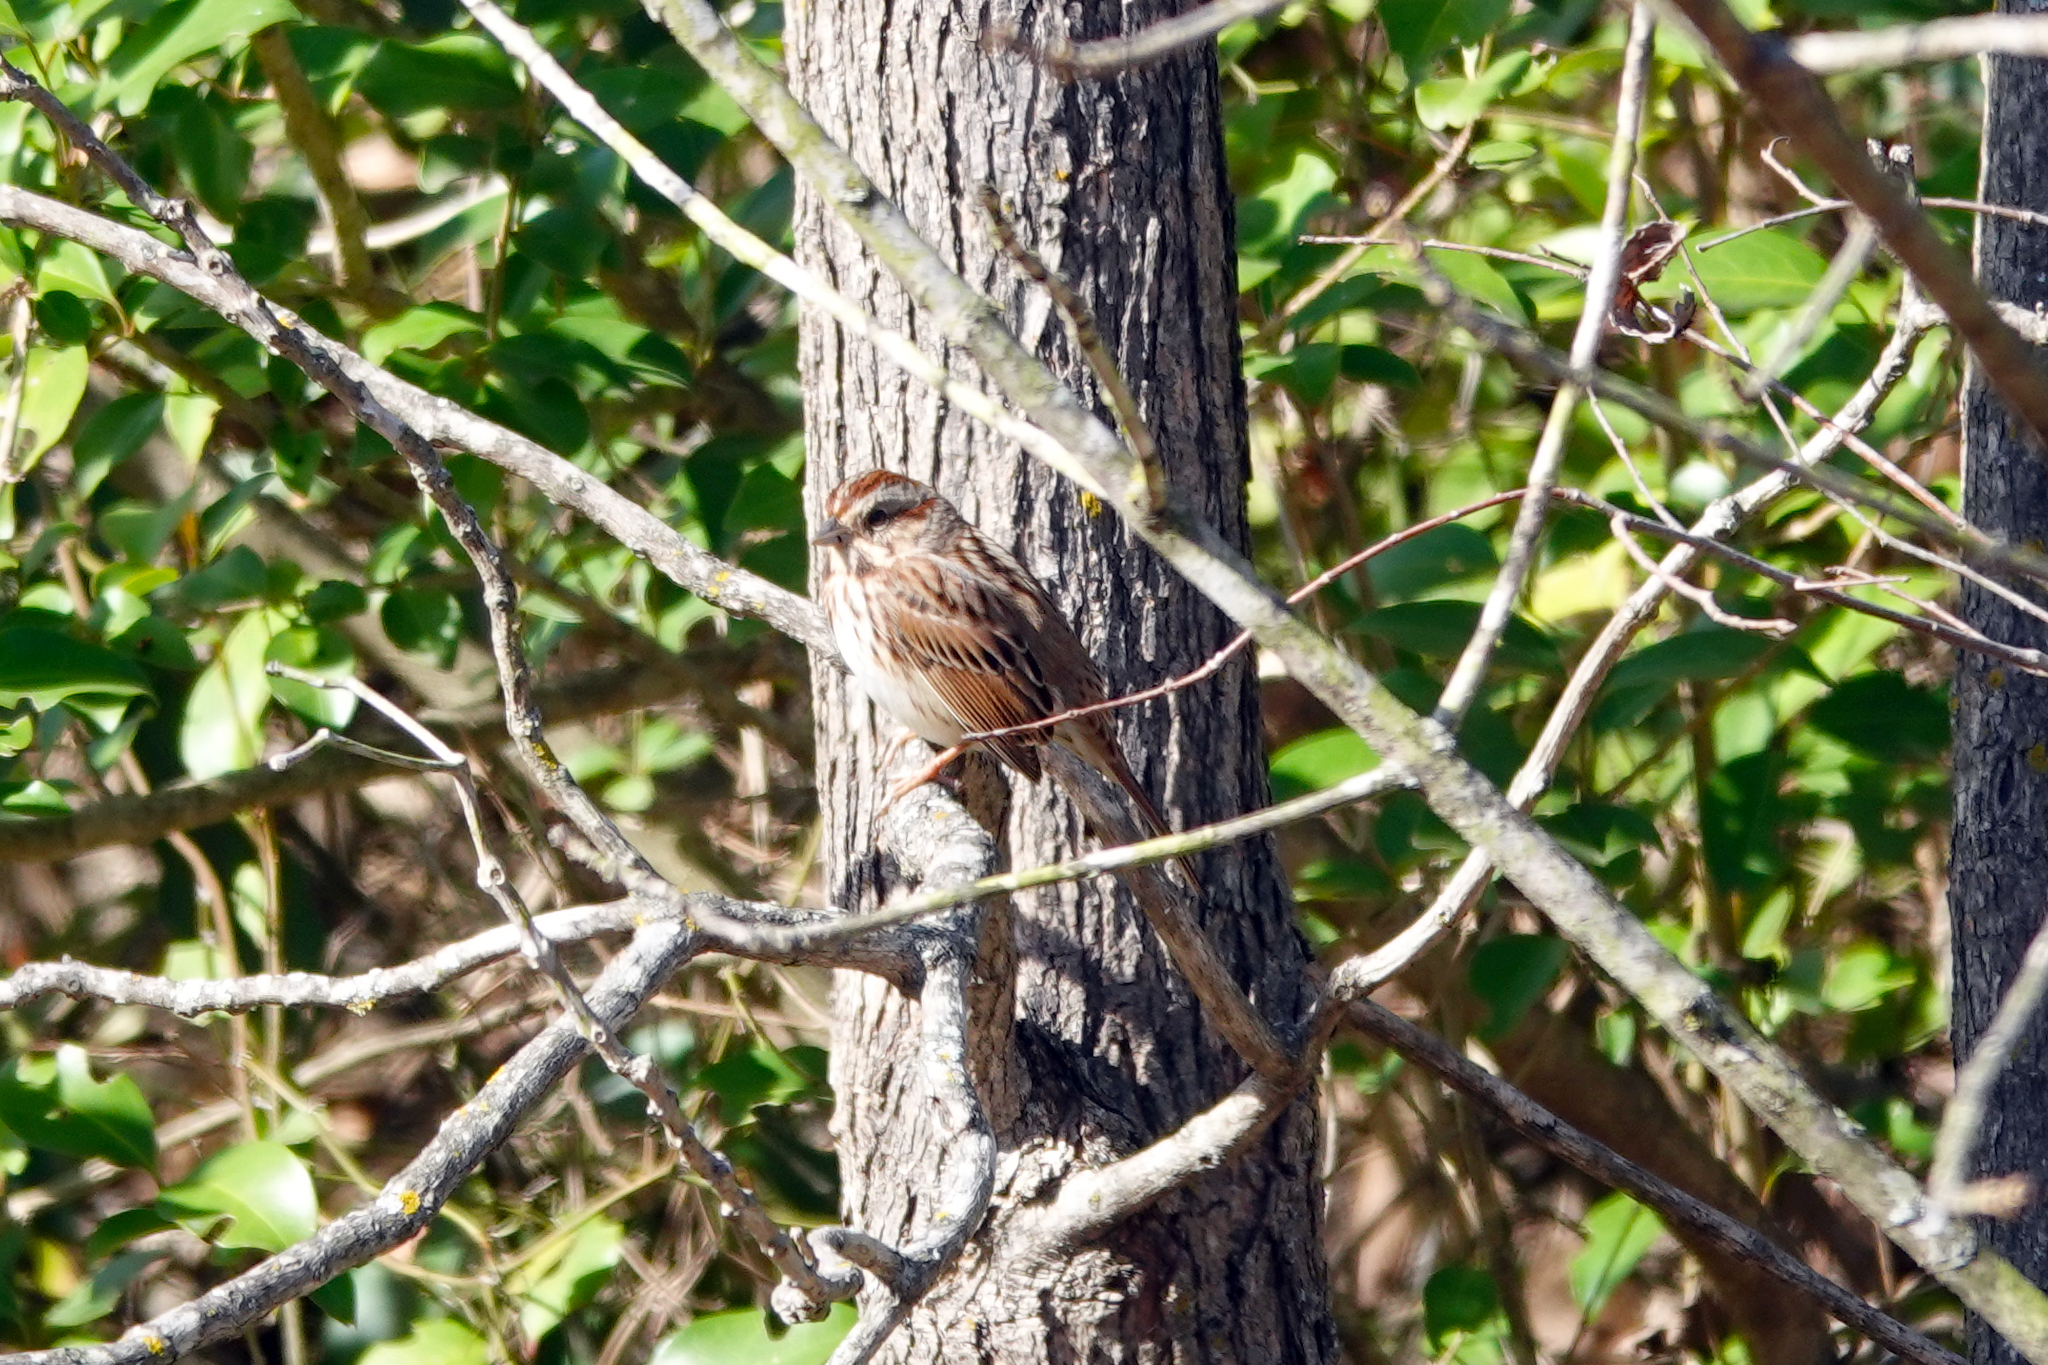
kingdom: Animalia
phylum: Chordata
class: Aves
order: Passeriformes
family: Passerellidae
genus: Melospiza
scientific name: Melospiza melodia
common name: Song sparrow
